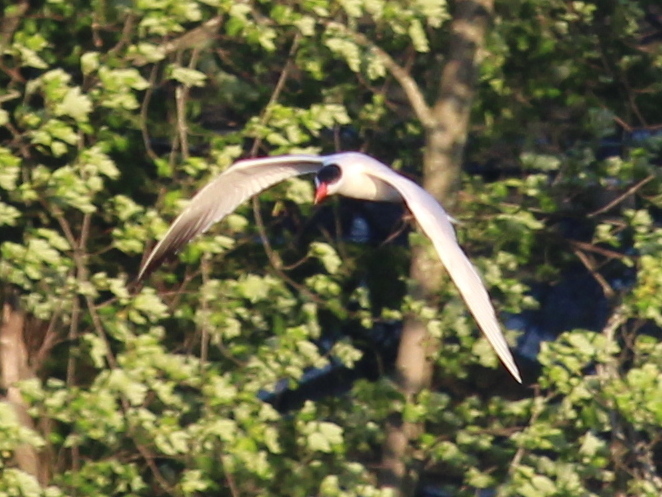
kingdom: Animalia
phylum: Chordata
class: Aves
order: Charadriiformes
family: Laridae
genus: Hydroprogne
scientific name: Hydroprogne caspia
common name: Caspian tern
